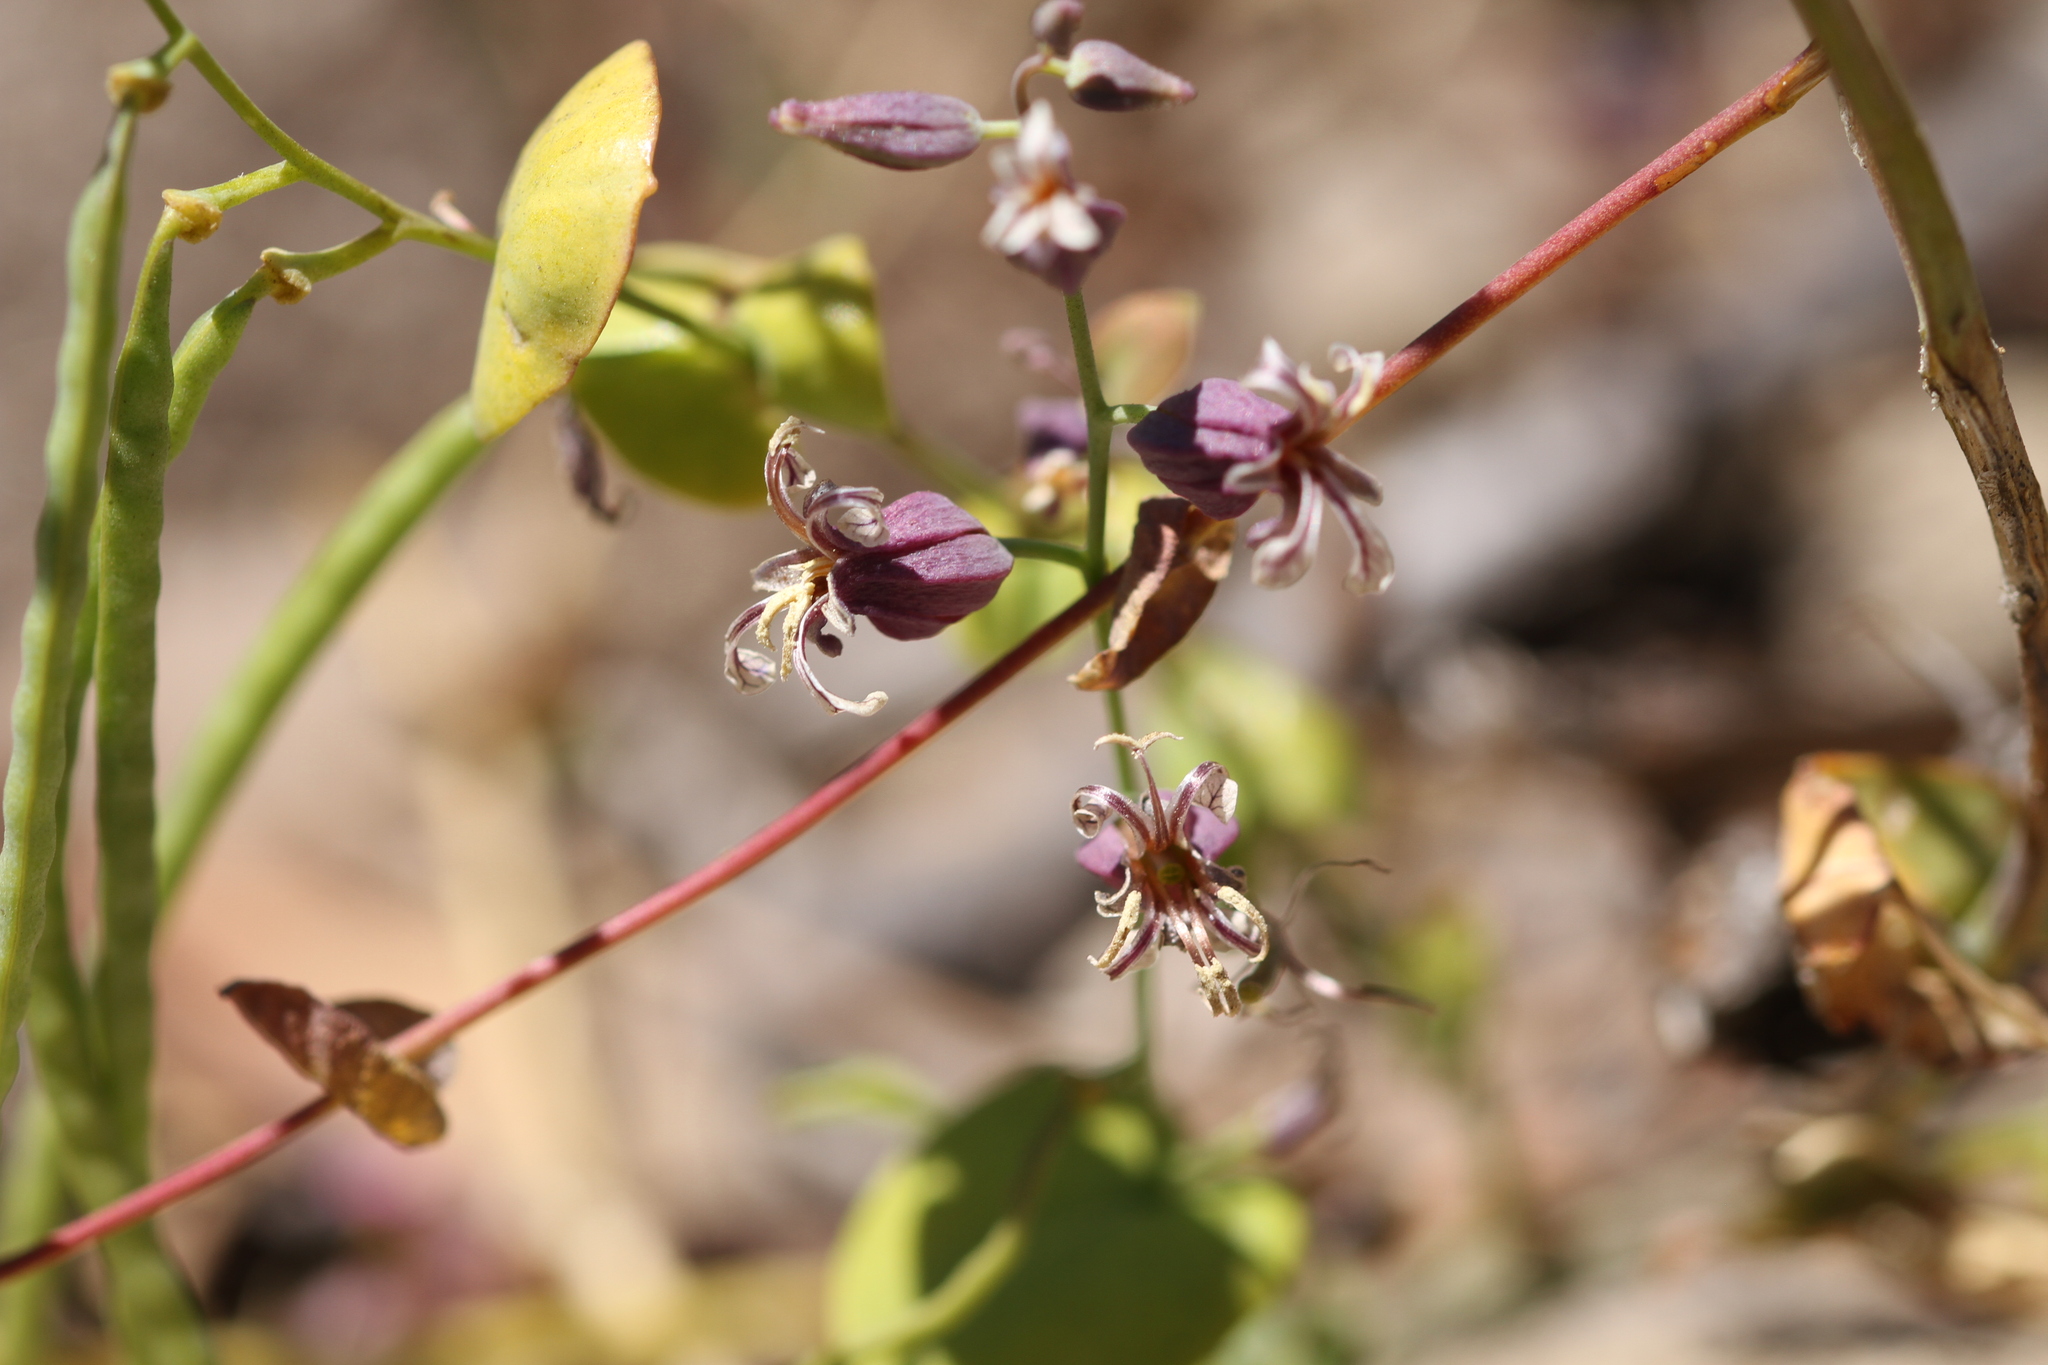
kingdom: Plantae
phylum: Tracheophyta
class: Magnoliopsida
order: Brassicales
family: Brassicaceae
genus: Streptanthus
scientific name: Streptanthus tortuosus
